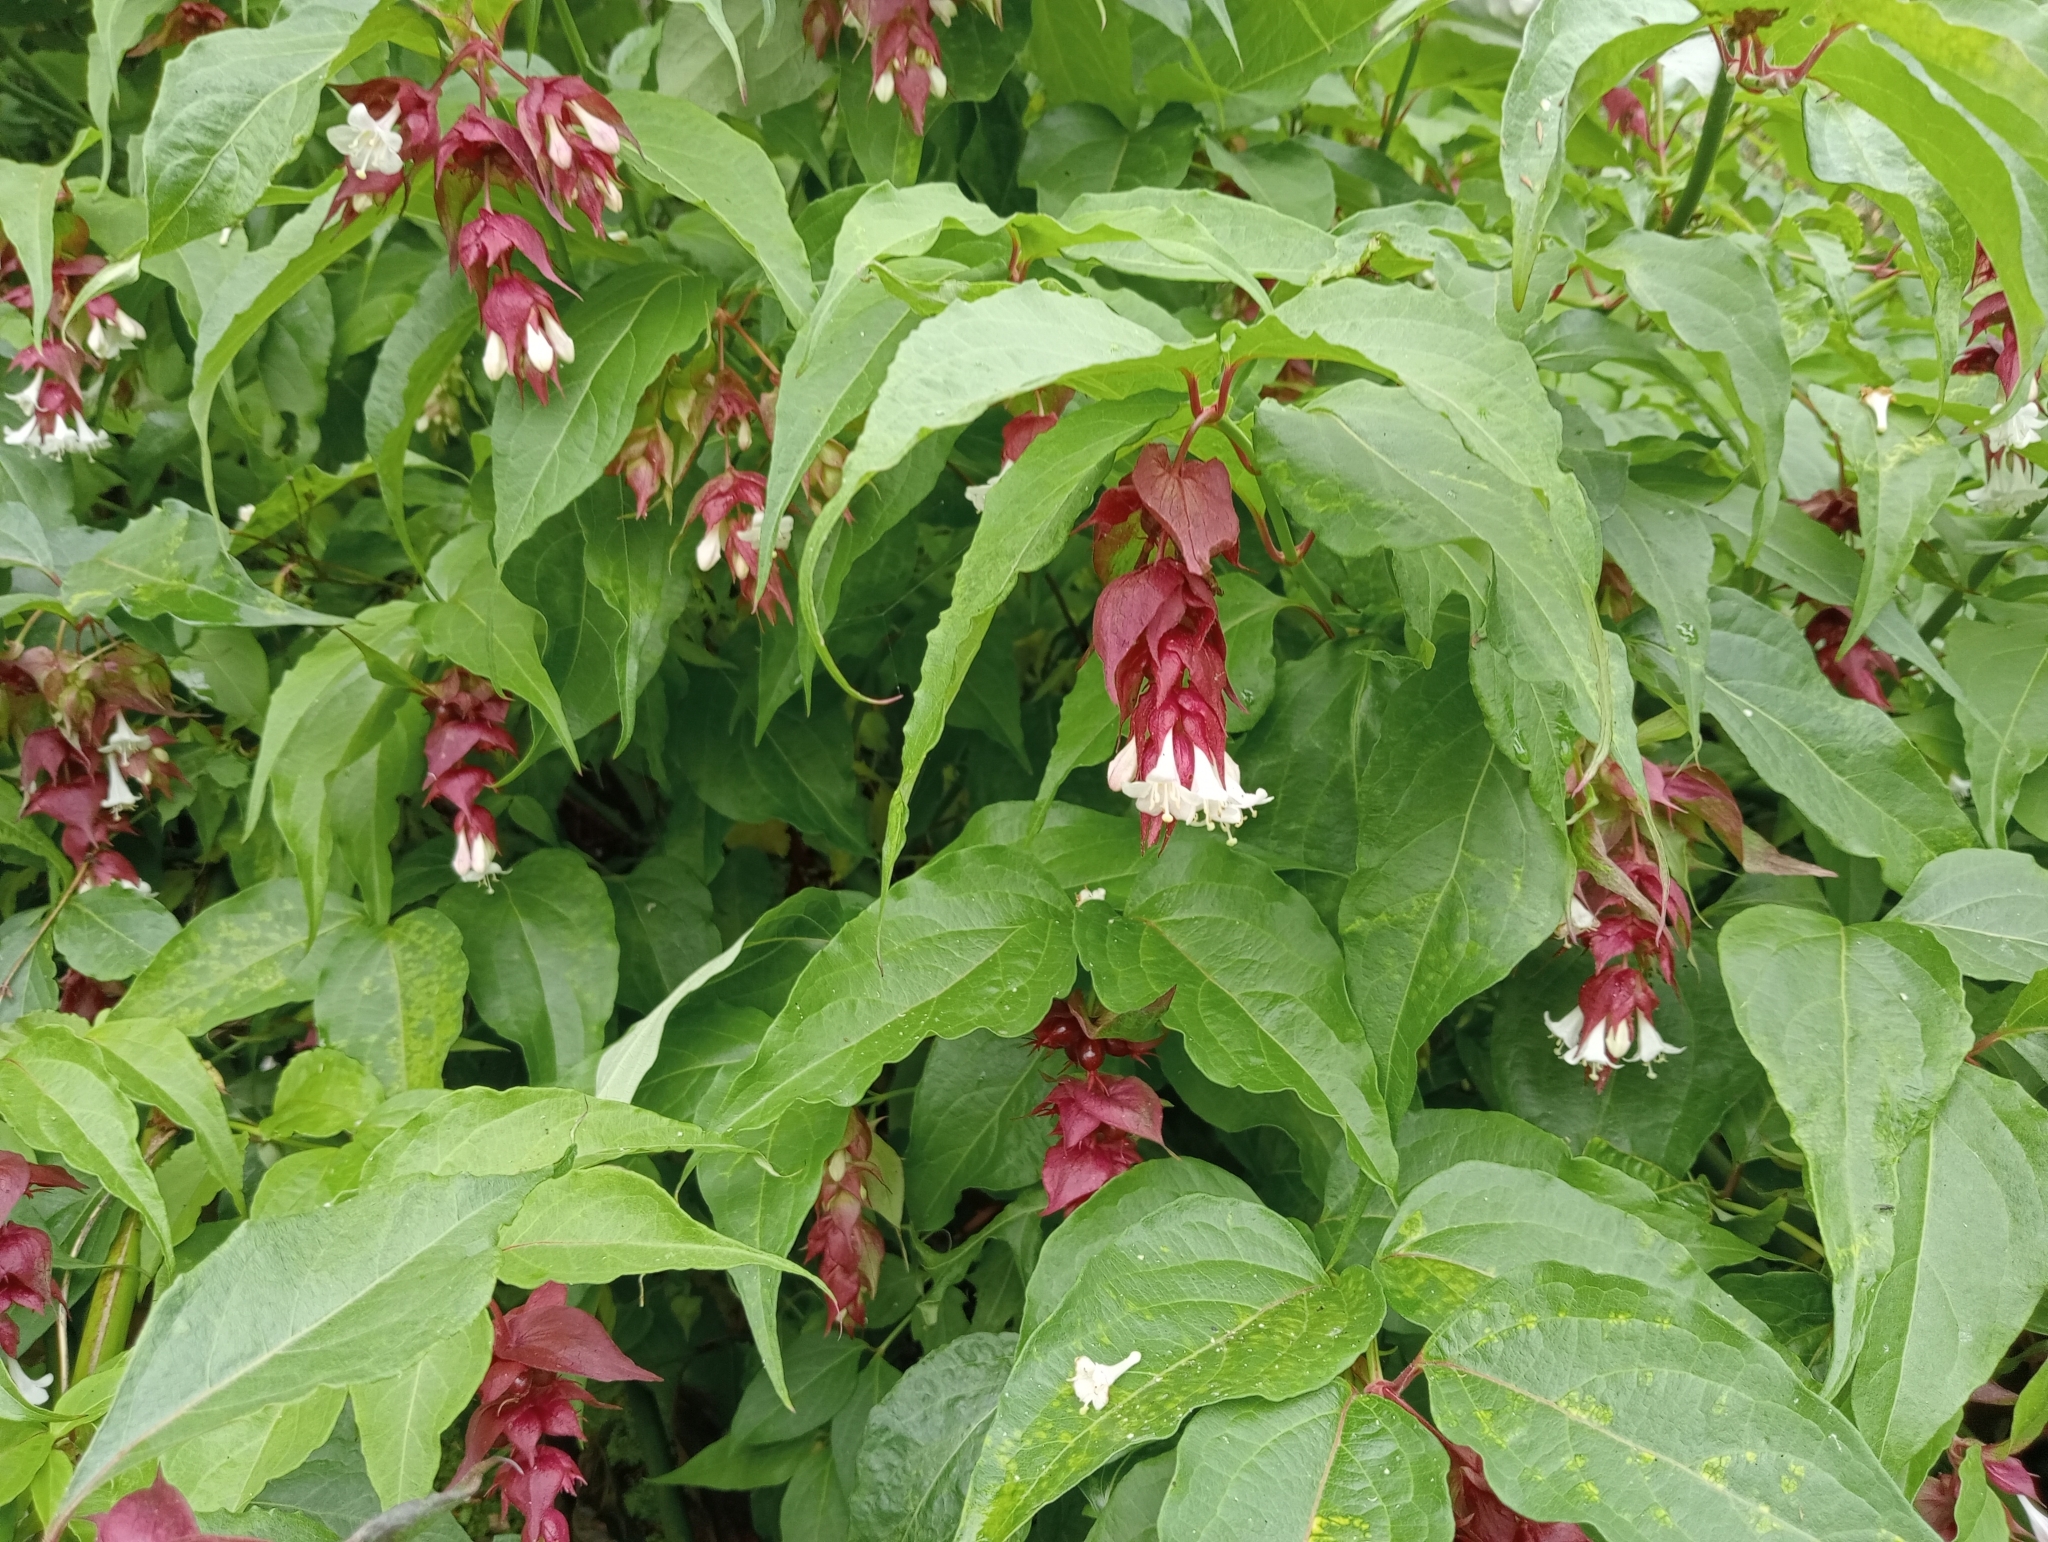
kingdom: Plantae
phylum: Tracheophyta
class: Magnoliopsida
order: Dipsacales
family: Caprifoliaceae
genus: Leycesteria
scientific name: Leycesteria formosa
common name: Himalayan honeysuckle
